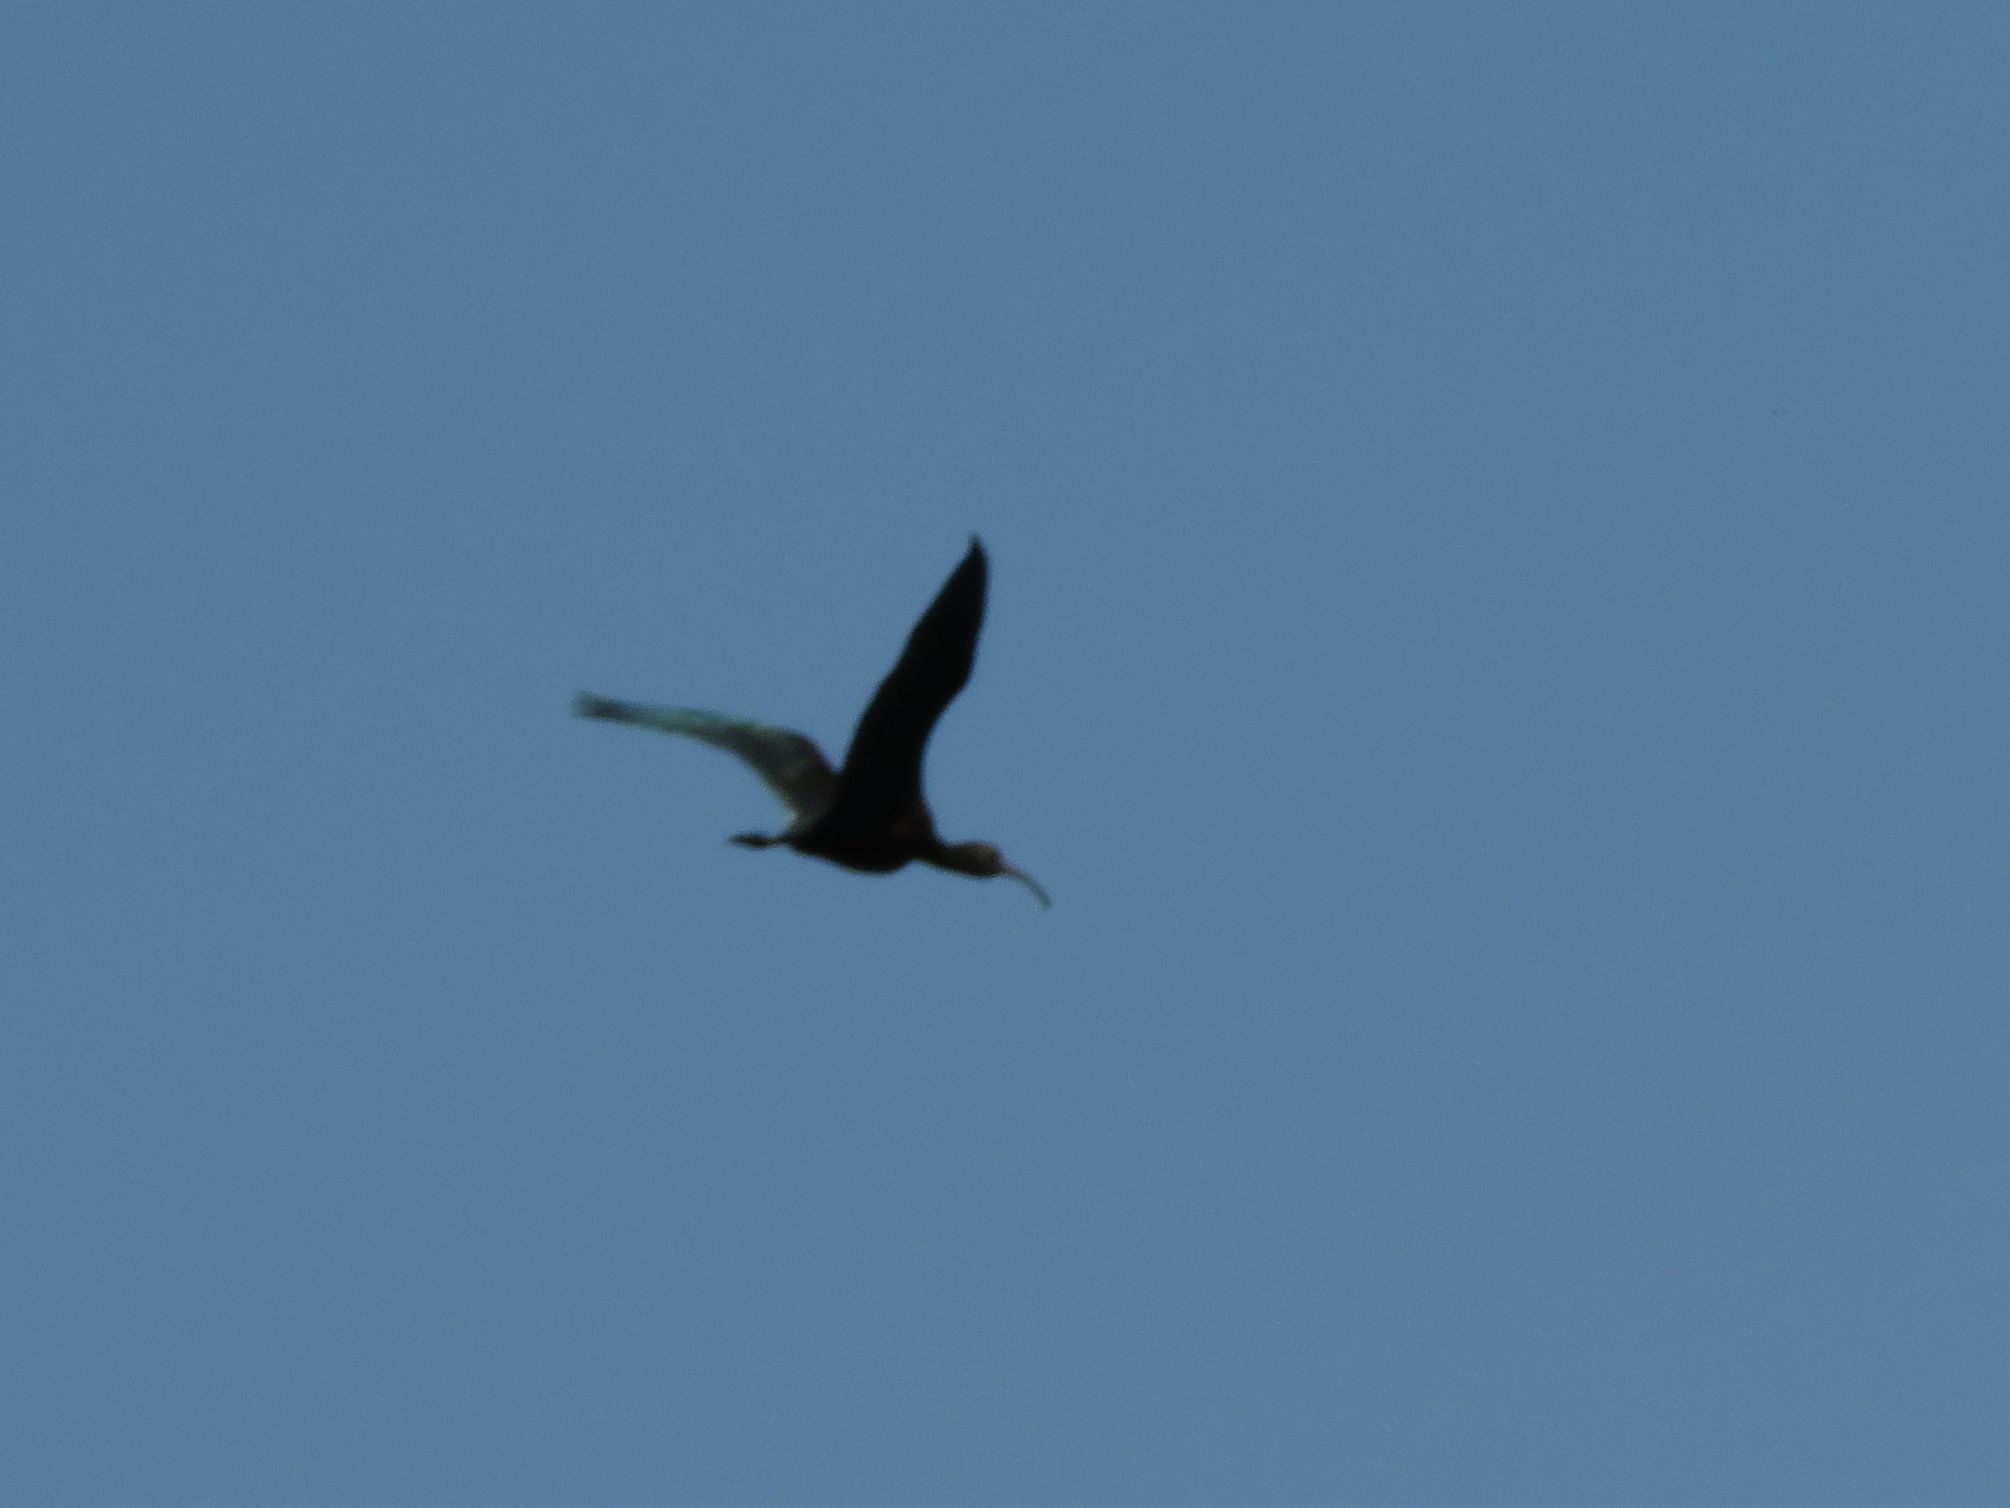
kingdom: Animalia
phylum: Chordata
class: Aves
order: Pelecaniformes
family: Threskiornithidae
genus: Plegadis
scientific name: Plegadis chihi
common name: White-faced ibis
